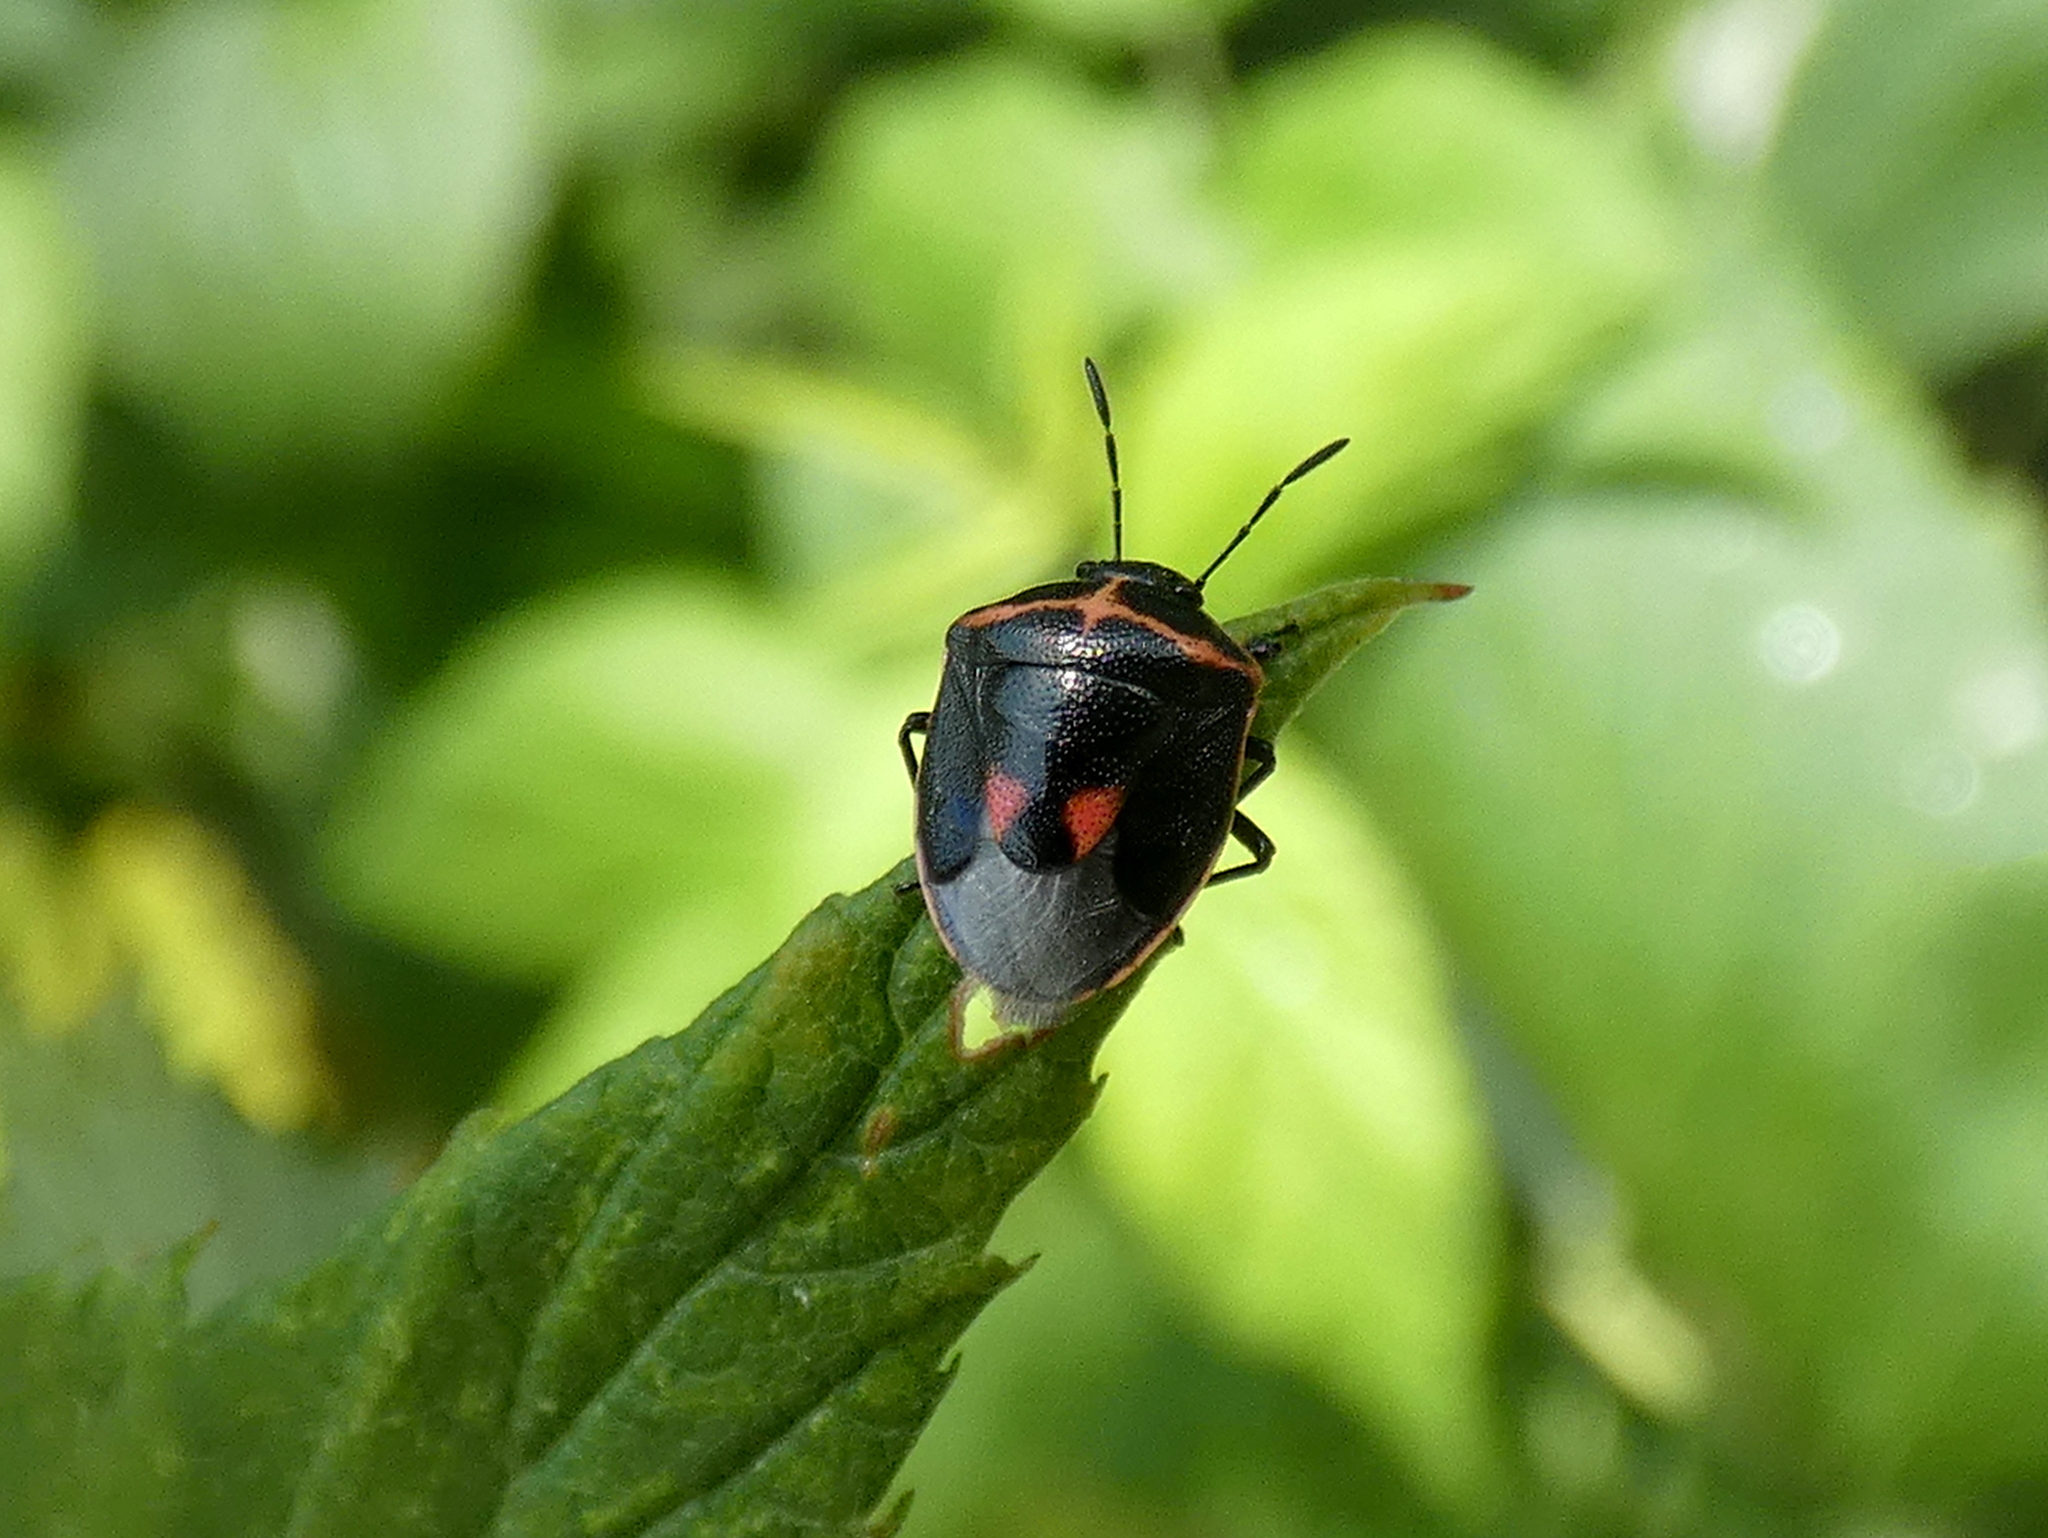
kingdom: Animalia
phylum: Arthropoda
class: Insecta
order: Hemiptera
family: Pentatomidae
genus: Cosmopepla
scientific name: Cosmopepla lintneriana
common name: Twice-stabbed stink bug
